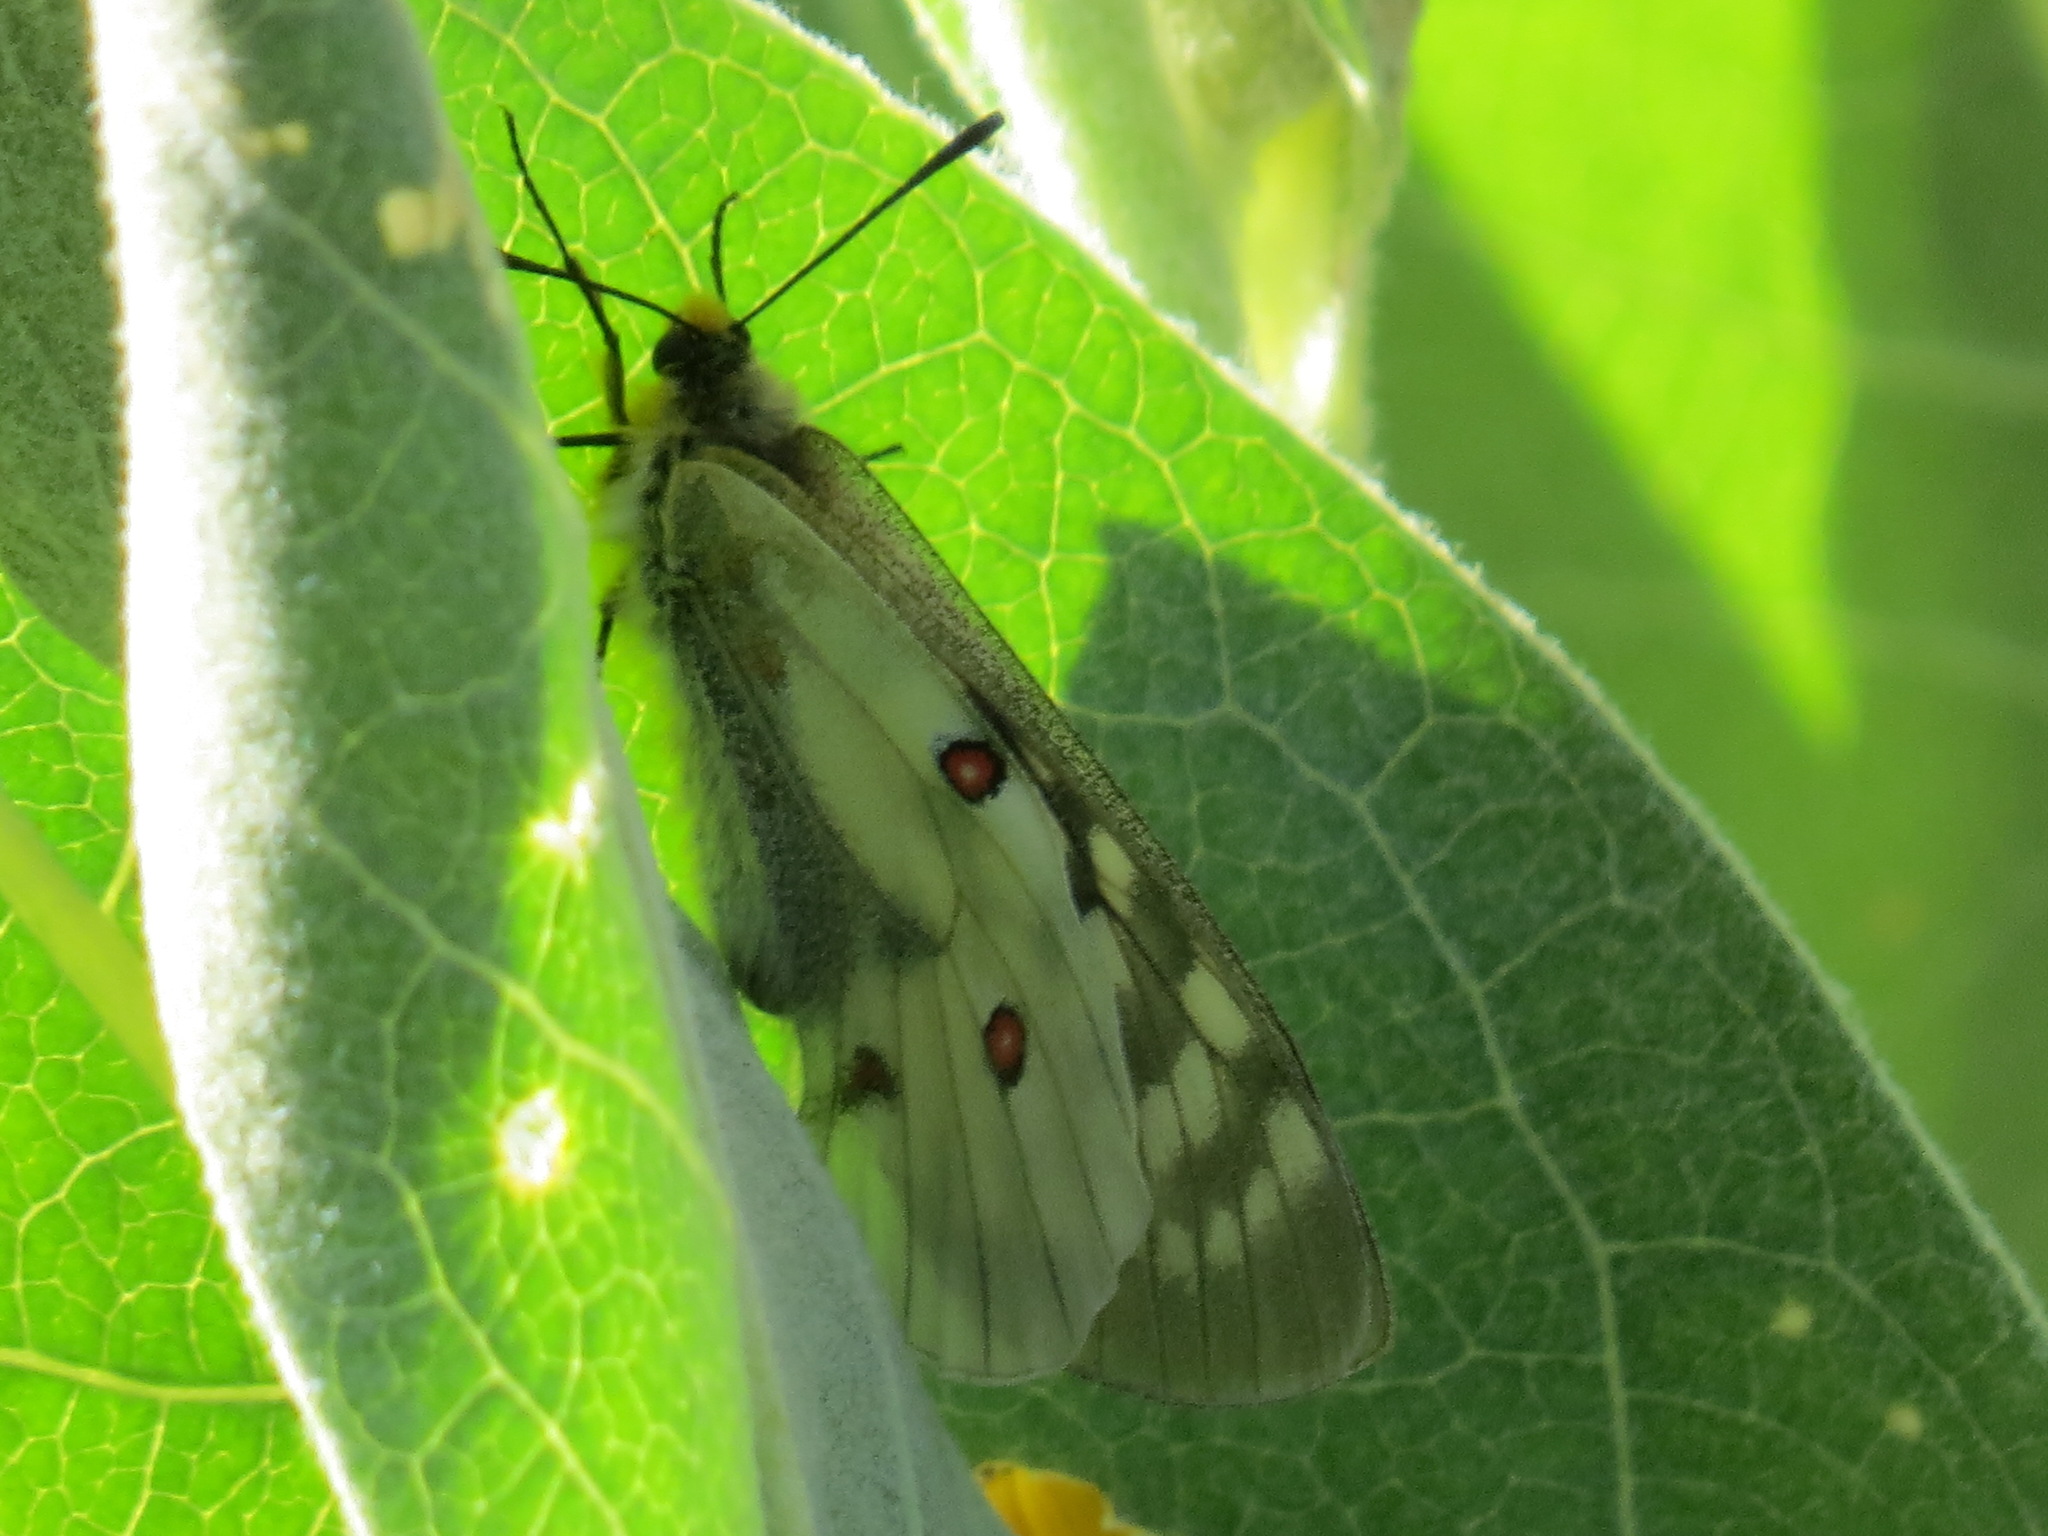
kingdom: Animalia
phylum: Arthropoda
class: Insecta
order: Lepidoptera
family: Papilionidae
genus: Parnassius
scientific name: Parnassius clodius
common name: American apollo
